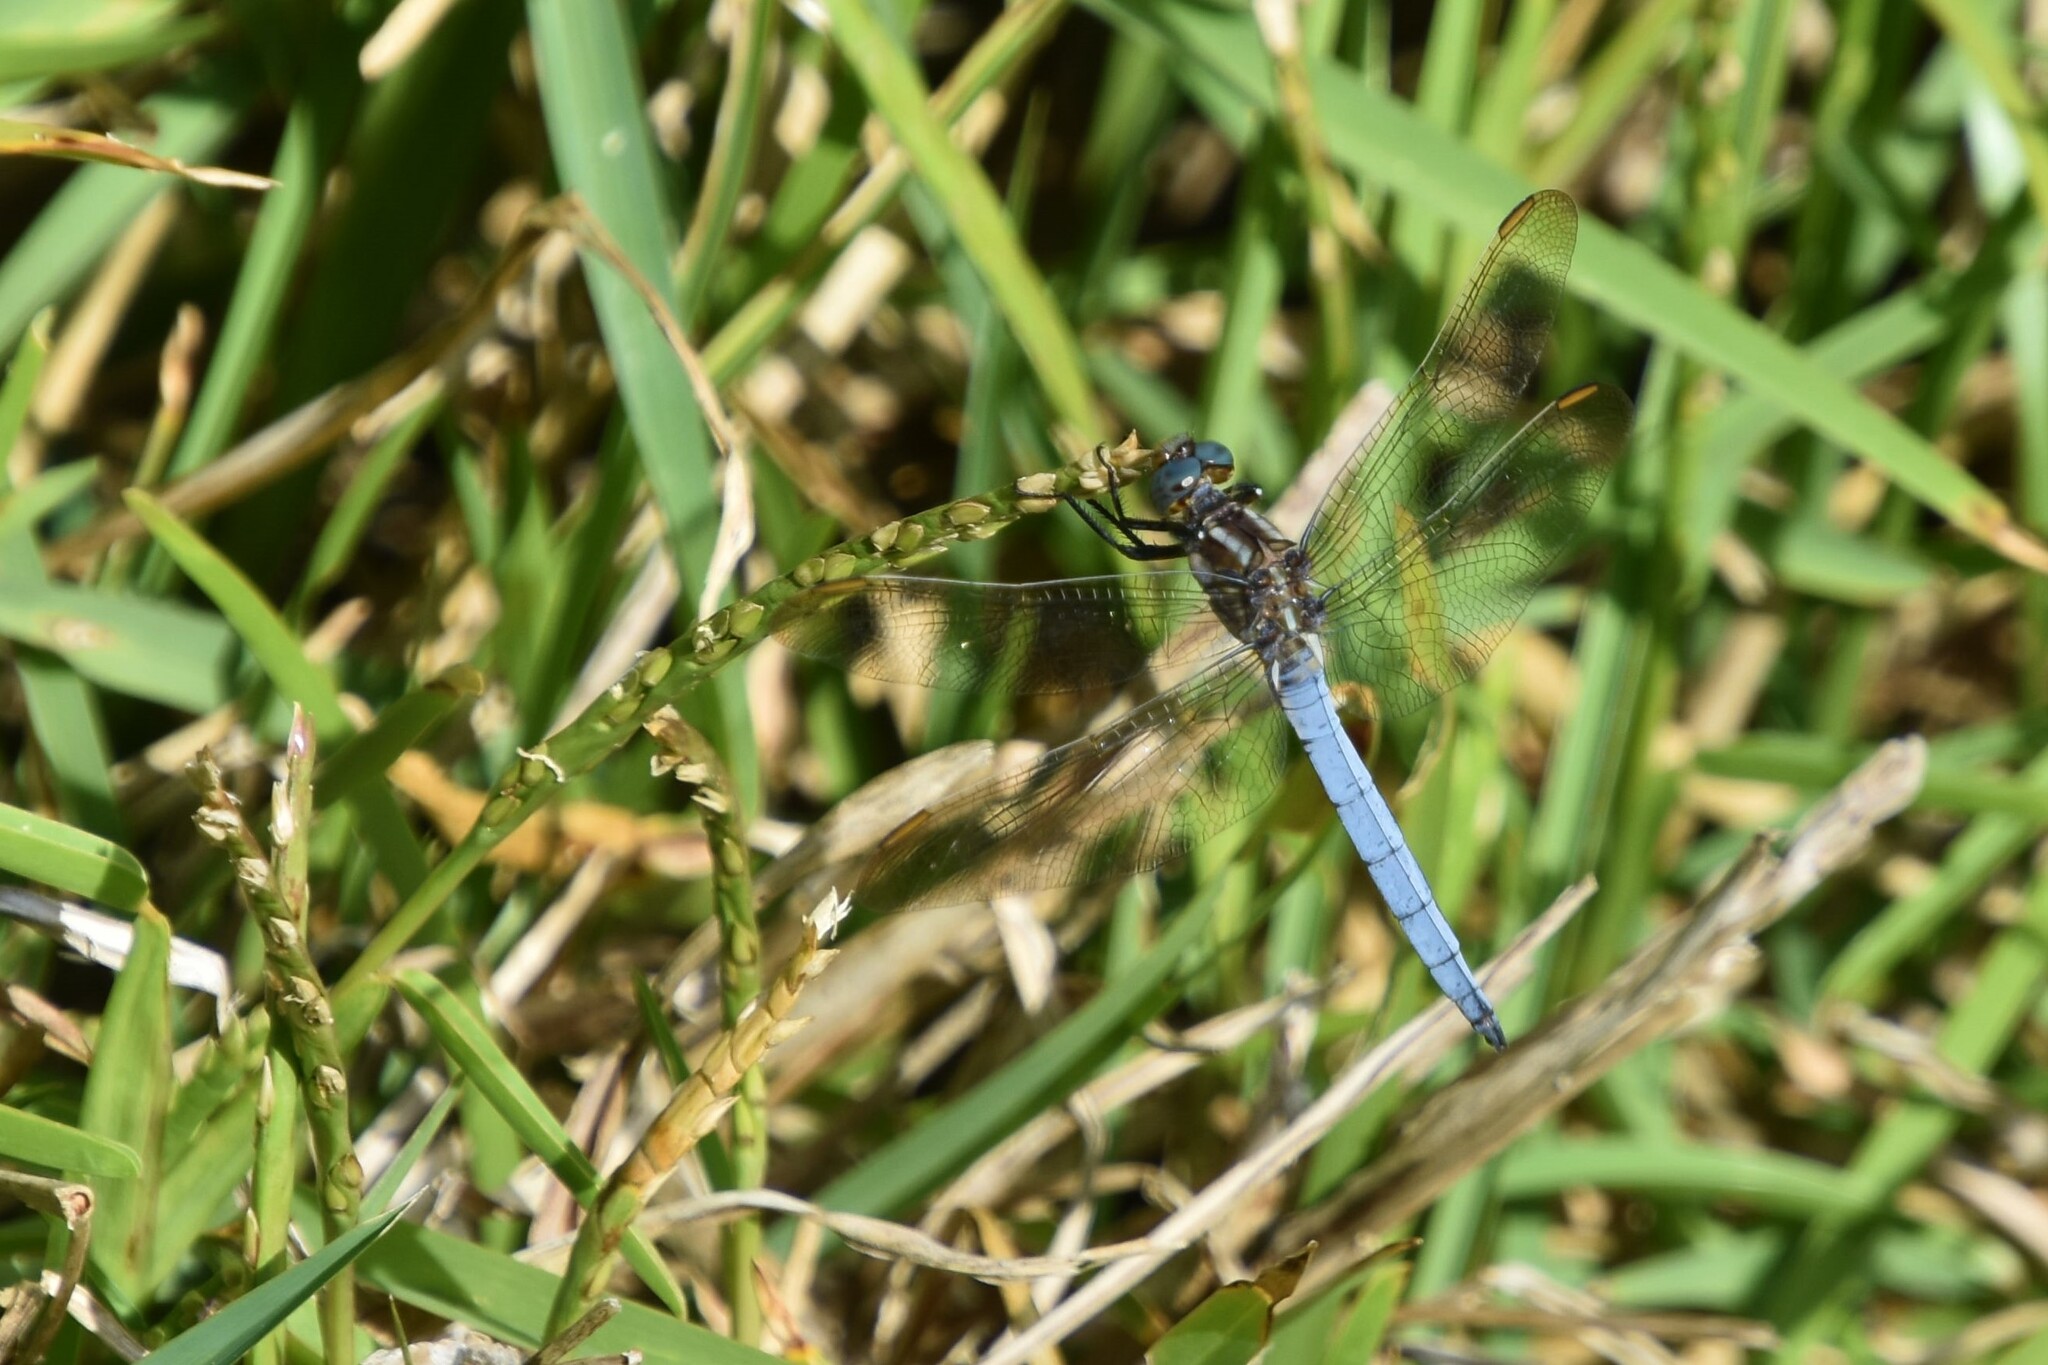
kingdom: Animalia
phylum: Arthropoda
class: Insecta
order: Odonata
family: Libellulidae
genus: Orthetrum
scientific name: Orthetrum coerulescens
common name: Keeled skimmer
